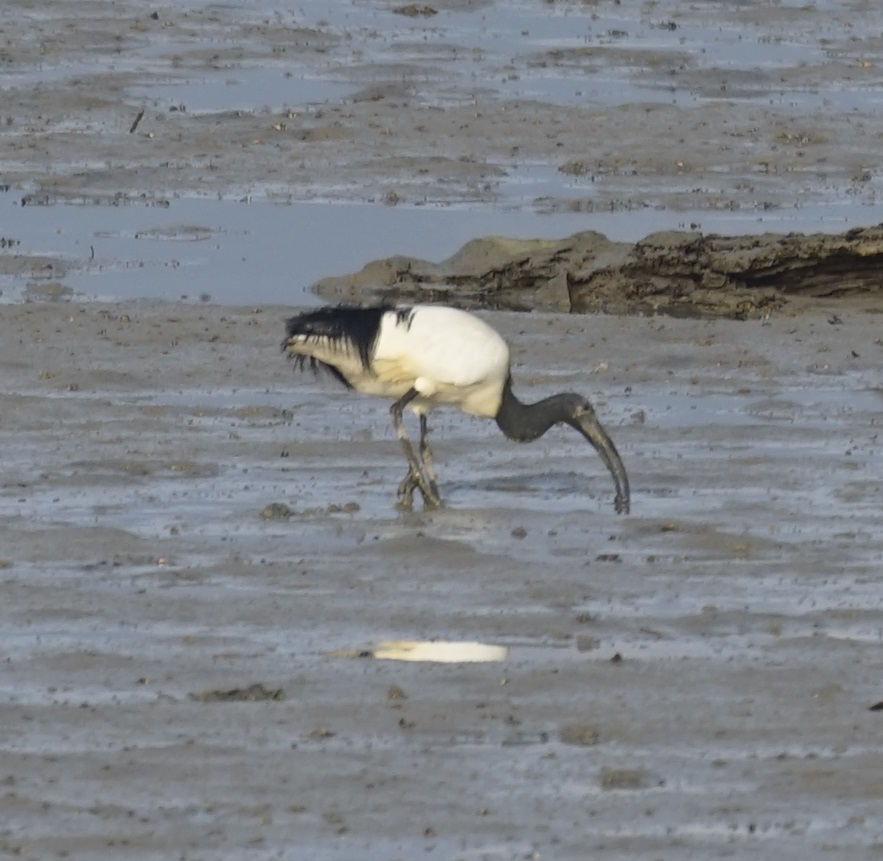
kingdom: Animalia
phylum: Chordata
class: Aves
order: Pelecaniformes
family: Threskiornithidae
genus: Threskiornis
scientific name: Threskiornis aethiopicus
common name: Sacred ibis
